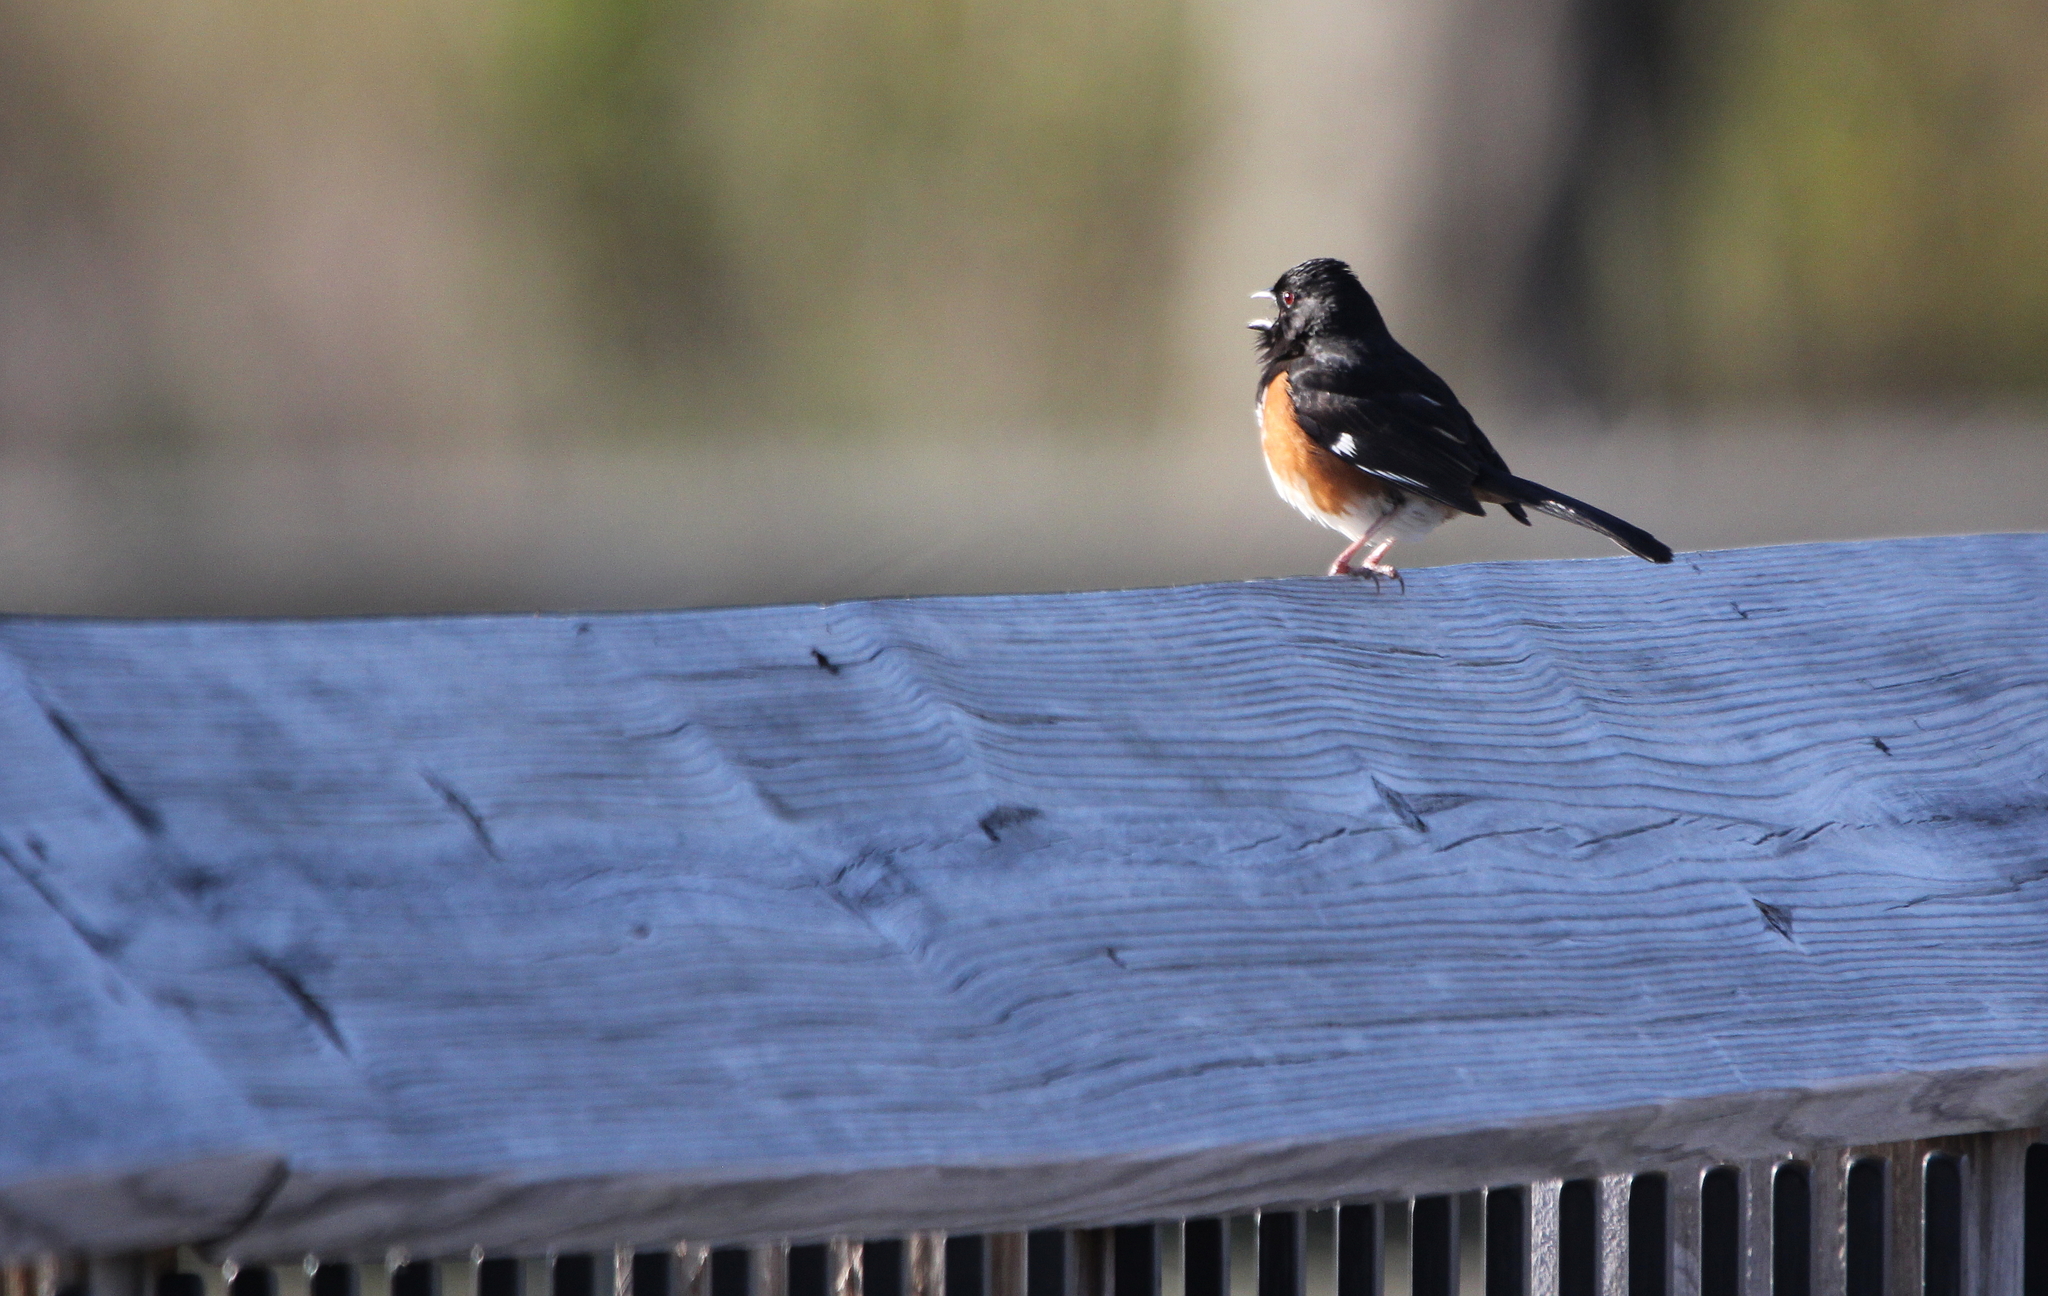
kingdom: Animalia
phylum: Chordata
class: Aves
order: Passeriformes
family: Passerellidae
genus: Pipilo
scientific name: Pipilo erythrophthalmus
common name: Eastern towhee
